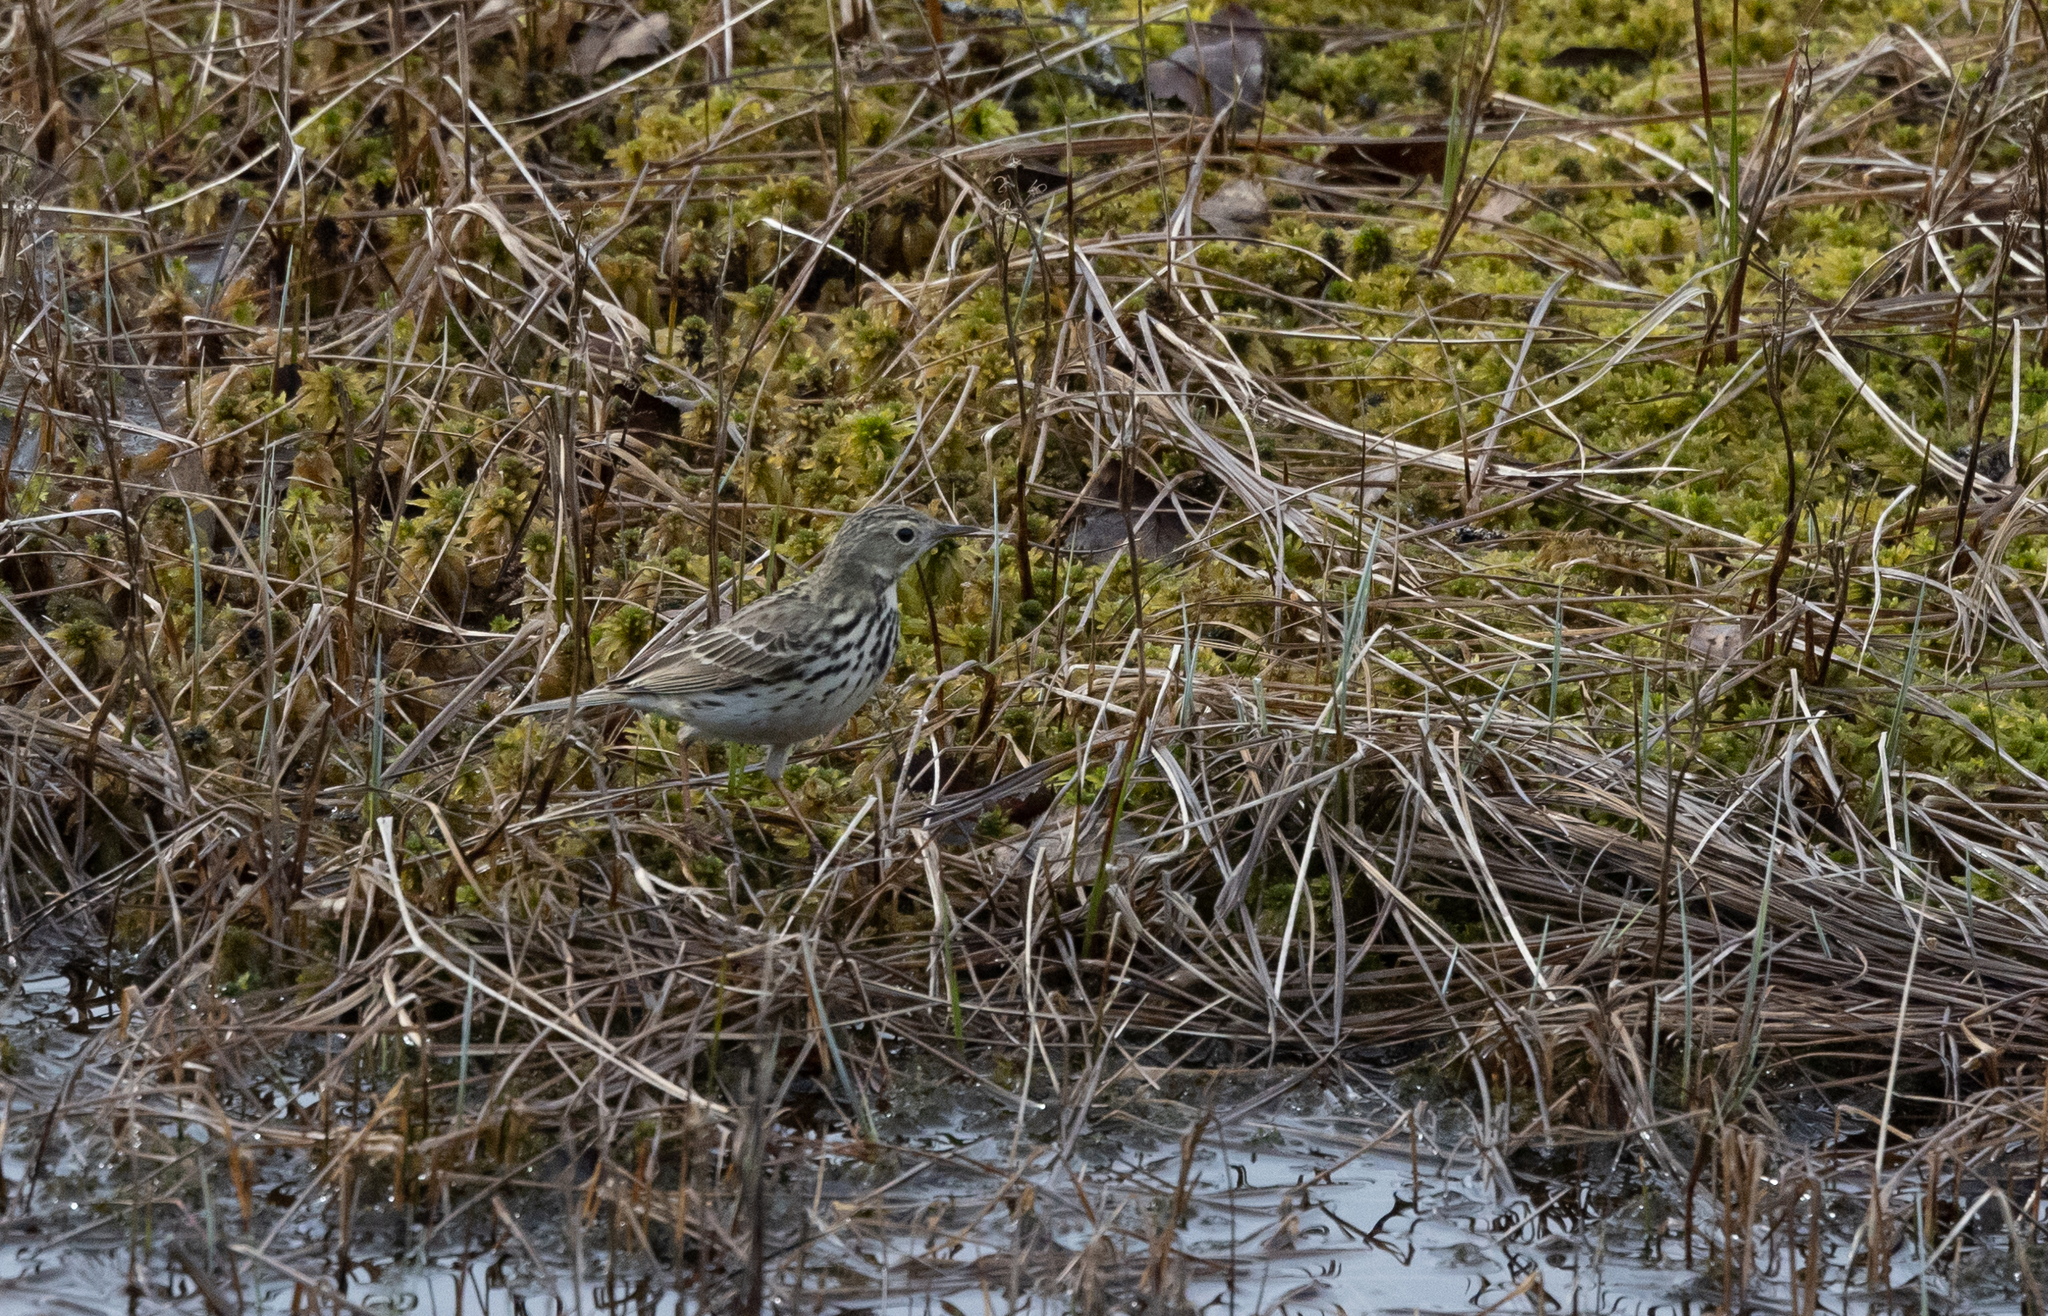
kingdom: Animalia
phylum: Chordata
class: Aves
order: Passeriformes
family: Motacillidae
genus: Anthus
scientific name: Anthus pratensis
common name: Meadow pipit
